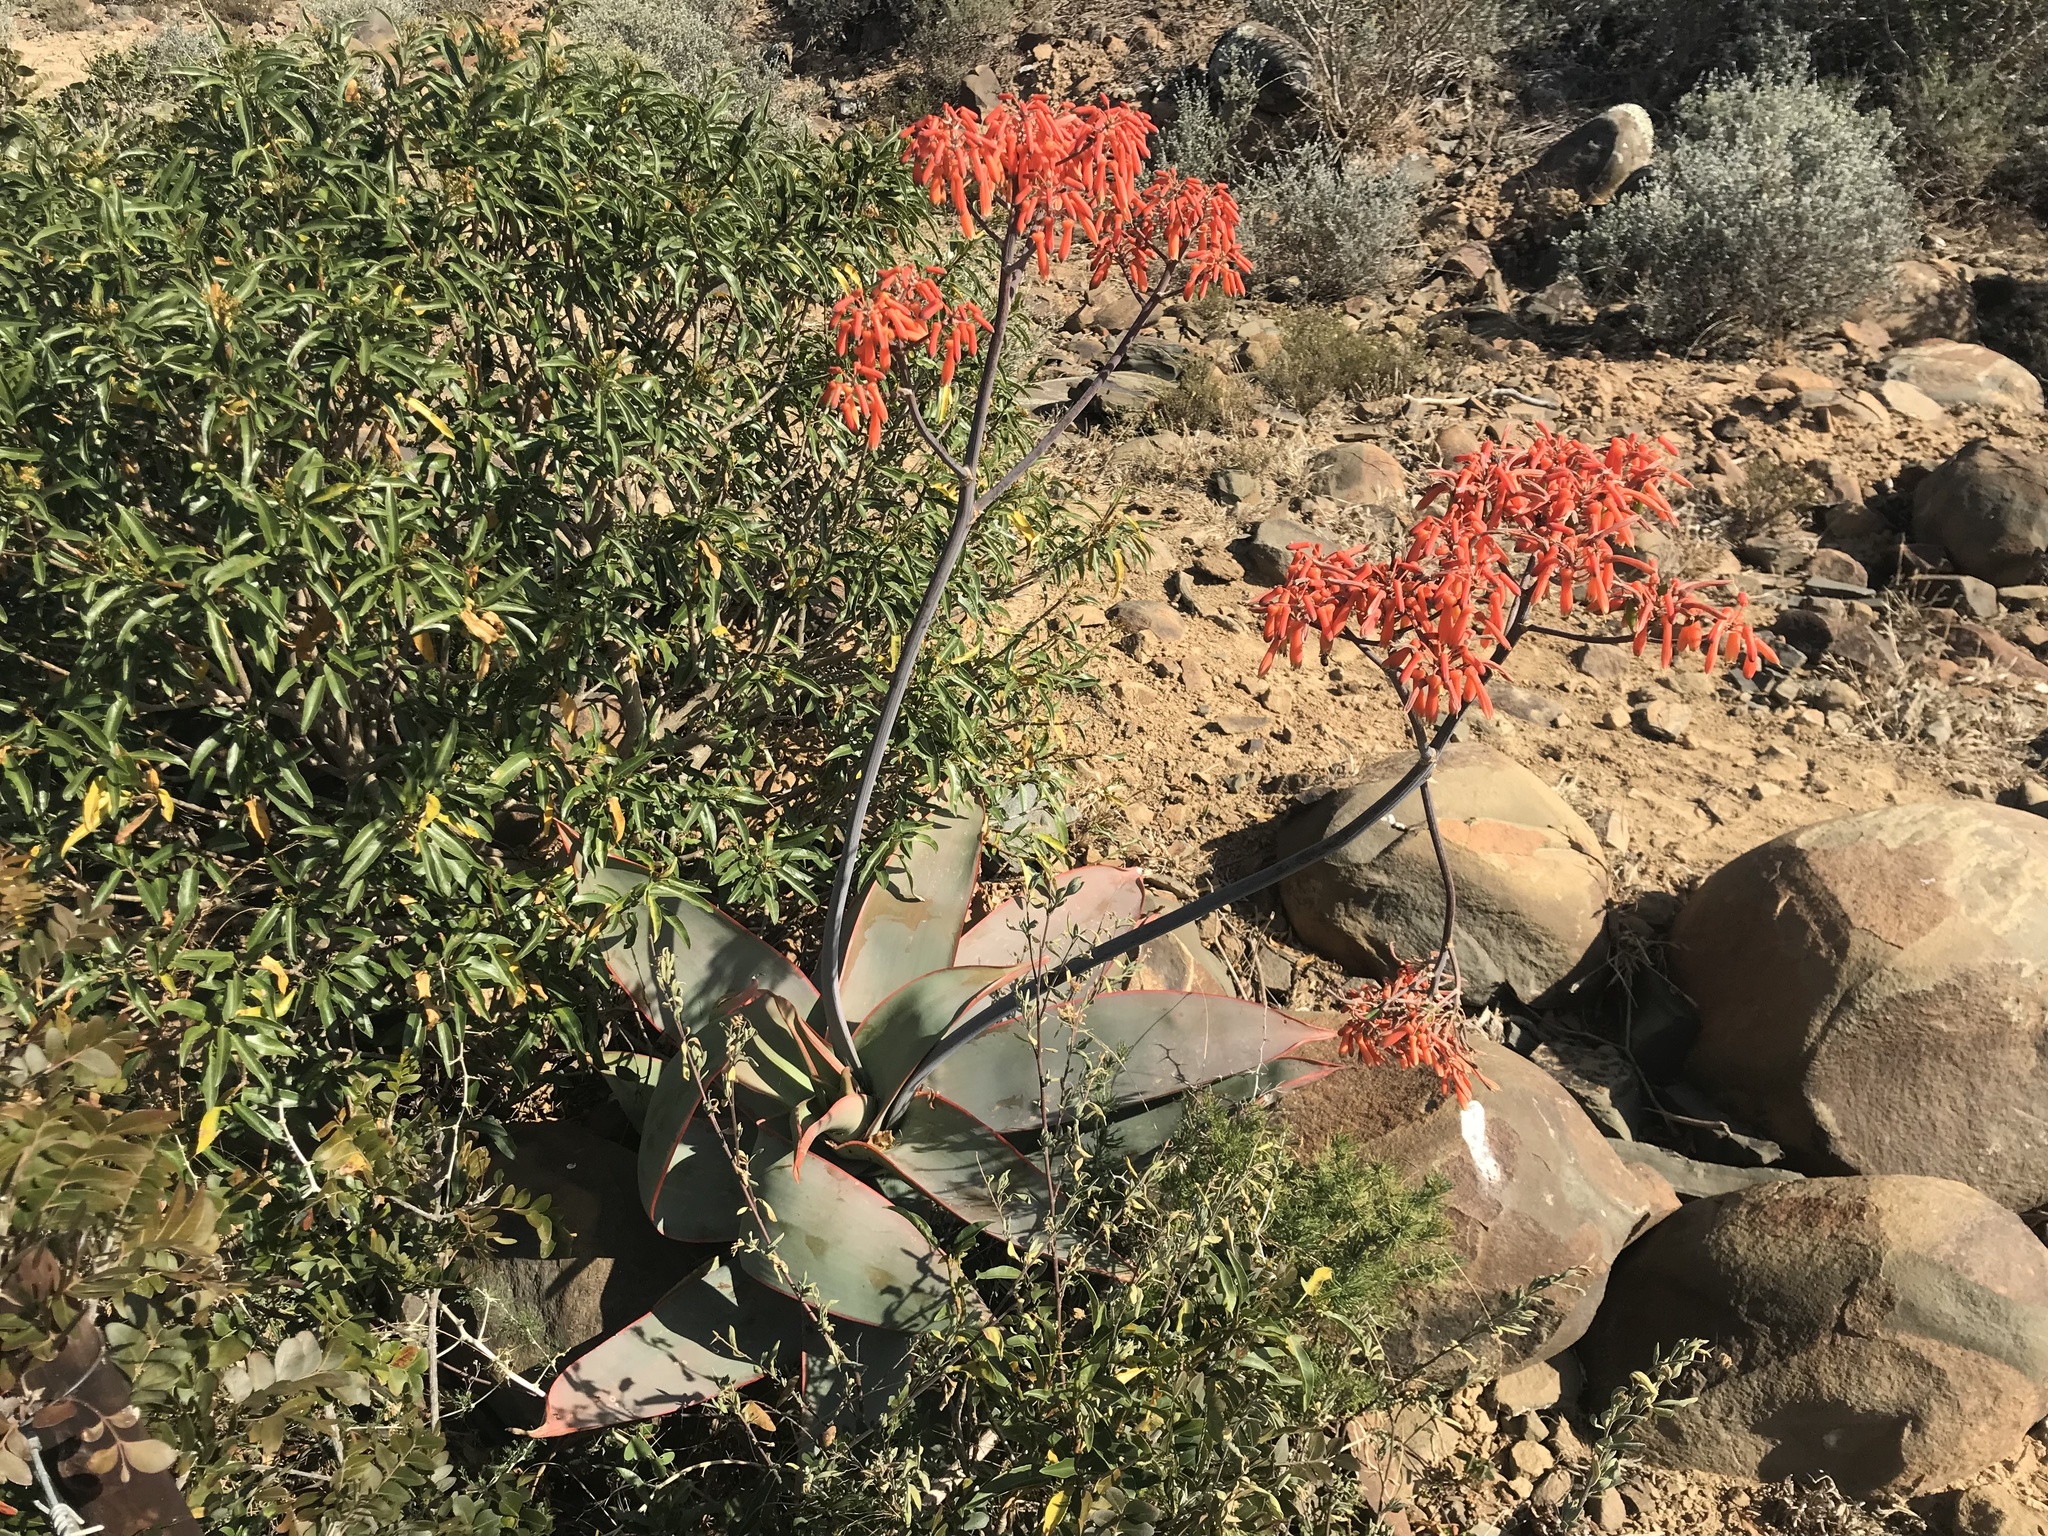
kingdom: Plantae
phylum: Tracheophyta
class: Liliopsida
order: Asparagales
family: Asphodelaceae
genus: Aloe
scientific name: Aloe striata
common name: Coral aloe
